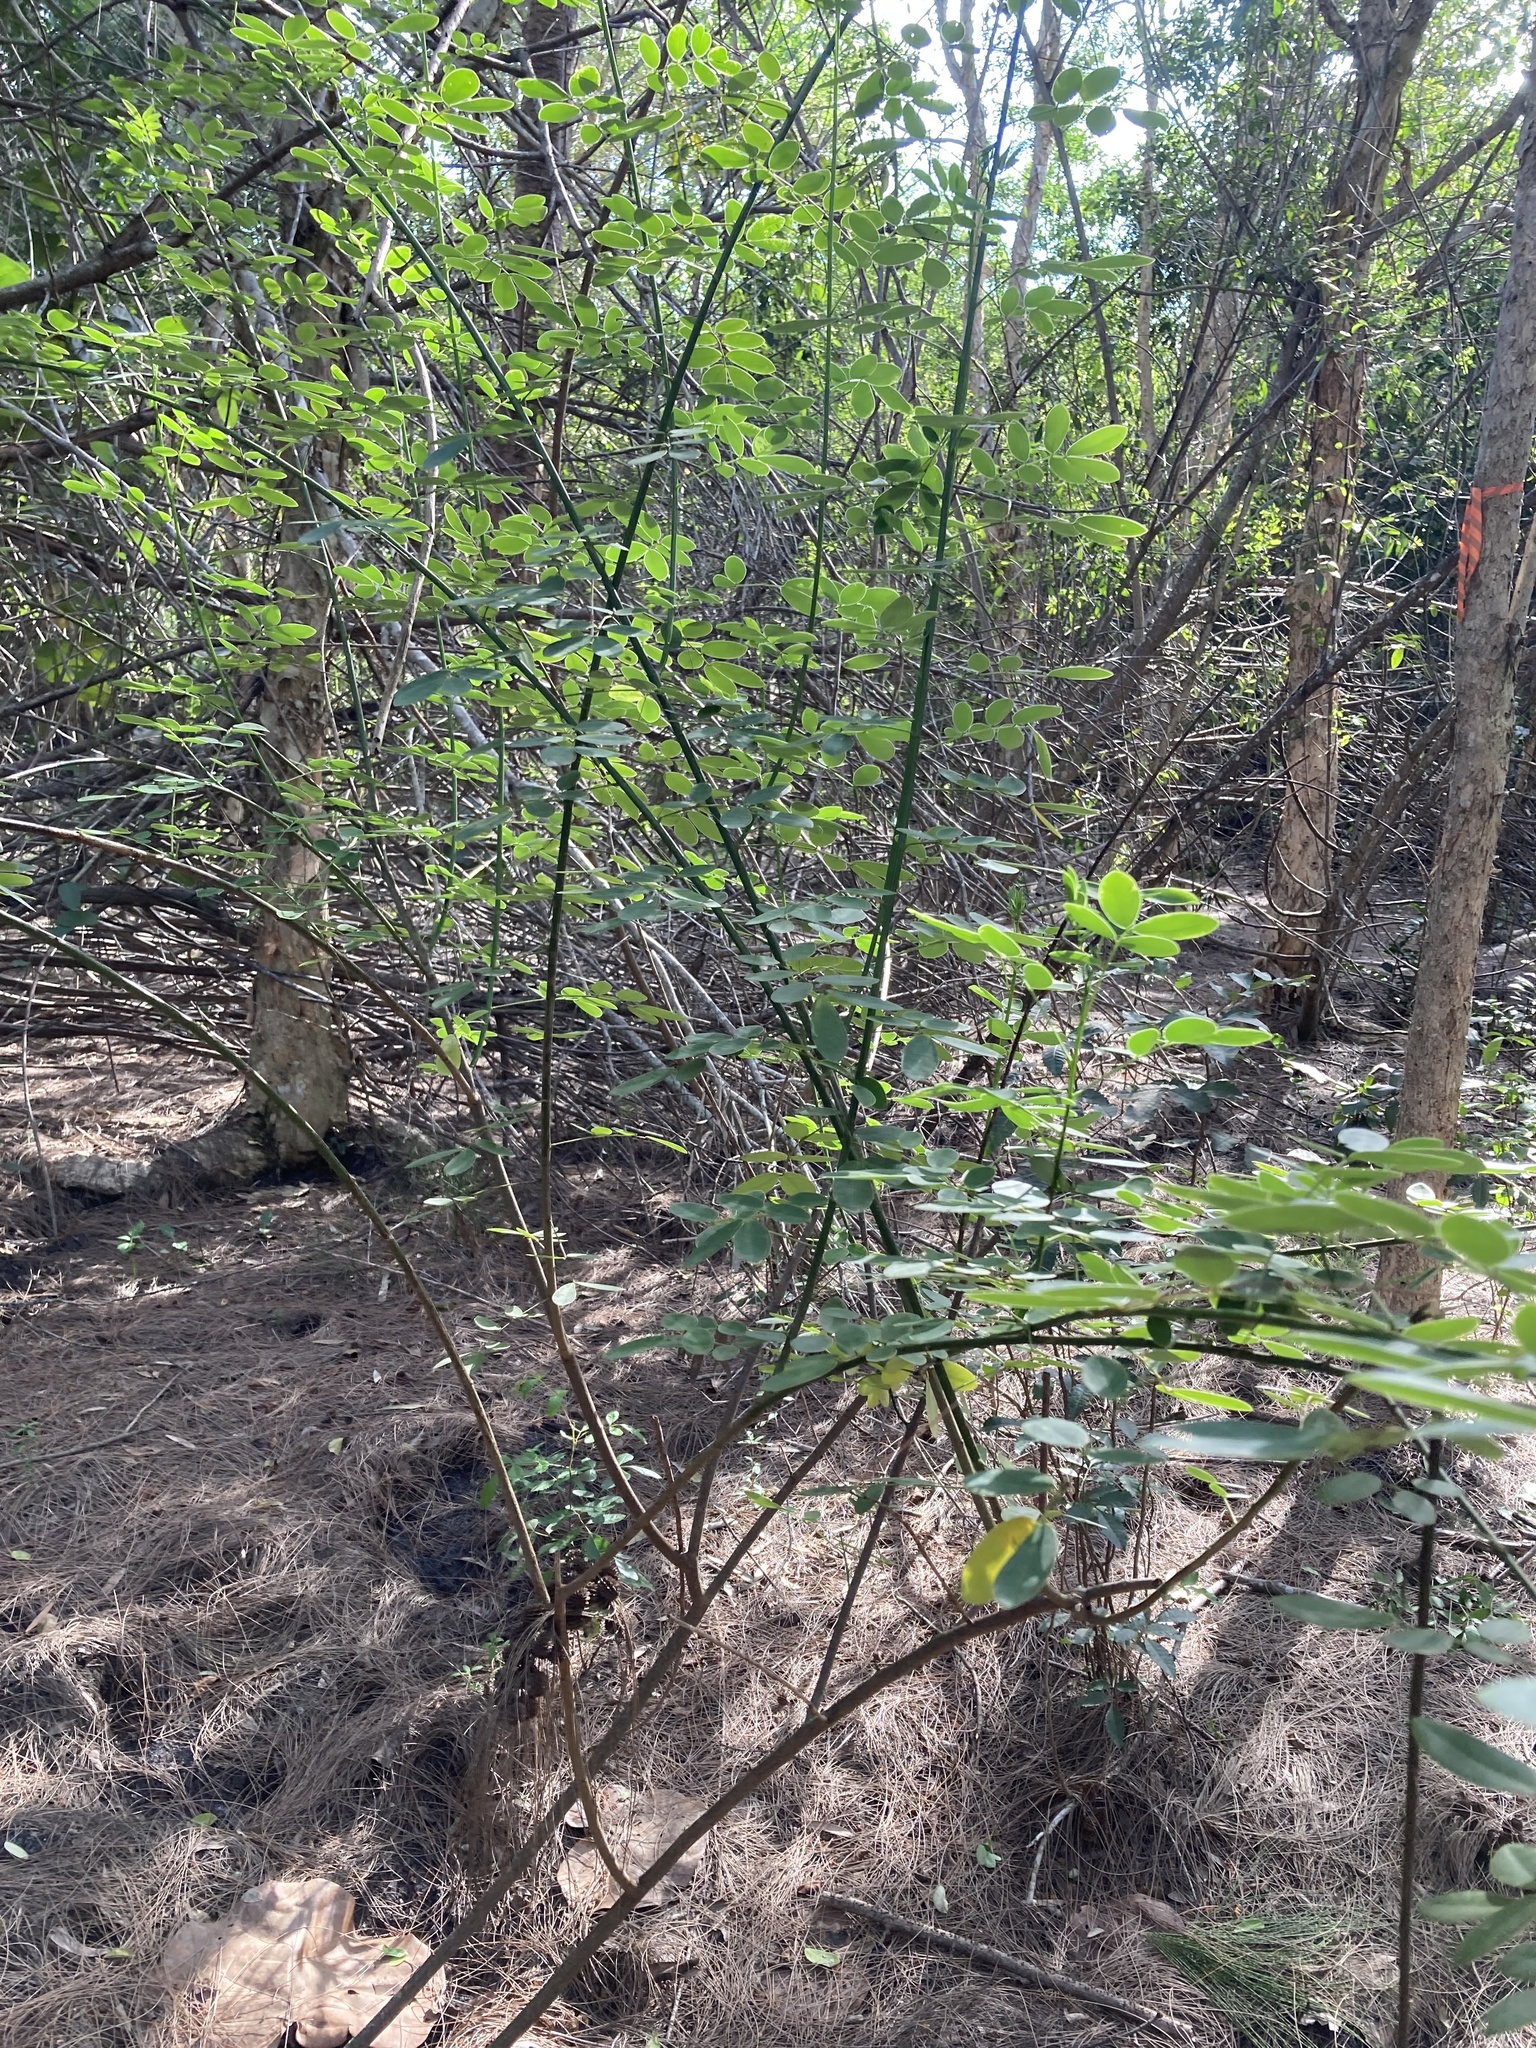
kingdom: Plantae
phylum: Tracheophyta
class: Magnoliopsida
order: Fabales
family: Fabaceae
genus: Senna
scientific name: Senna pendula
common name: Easter cassia
